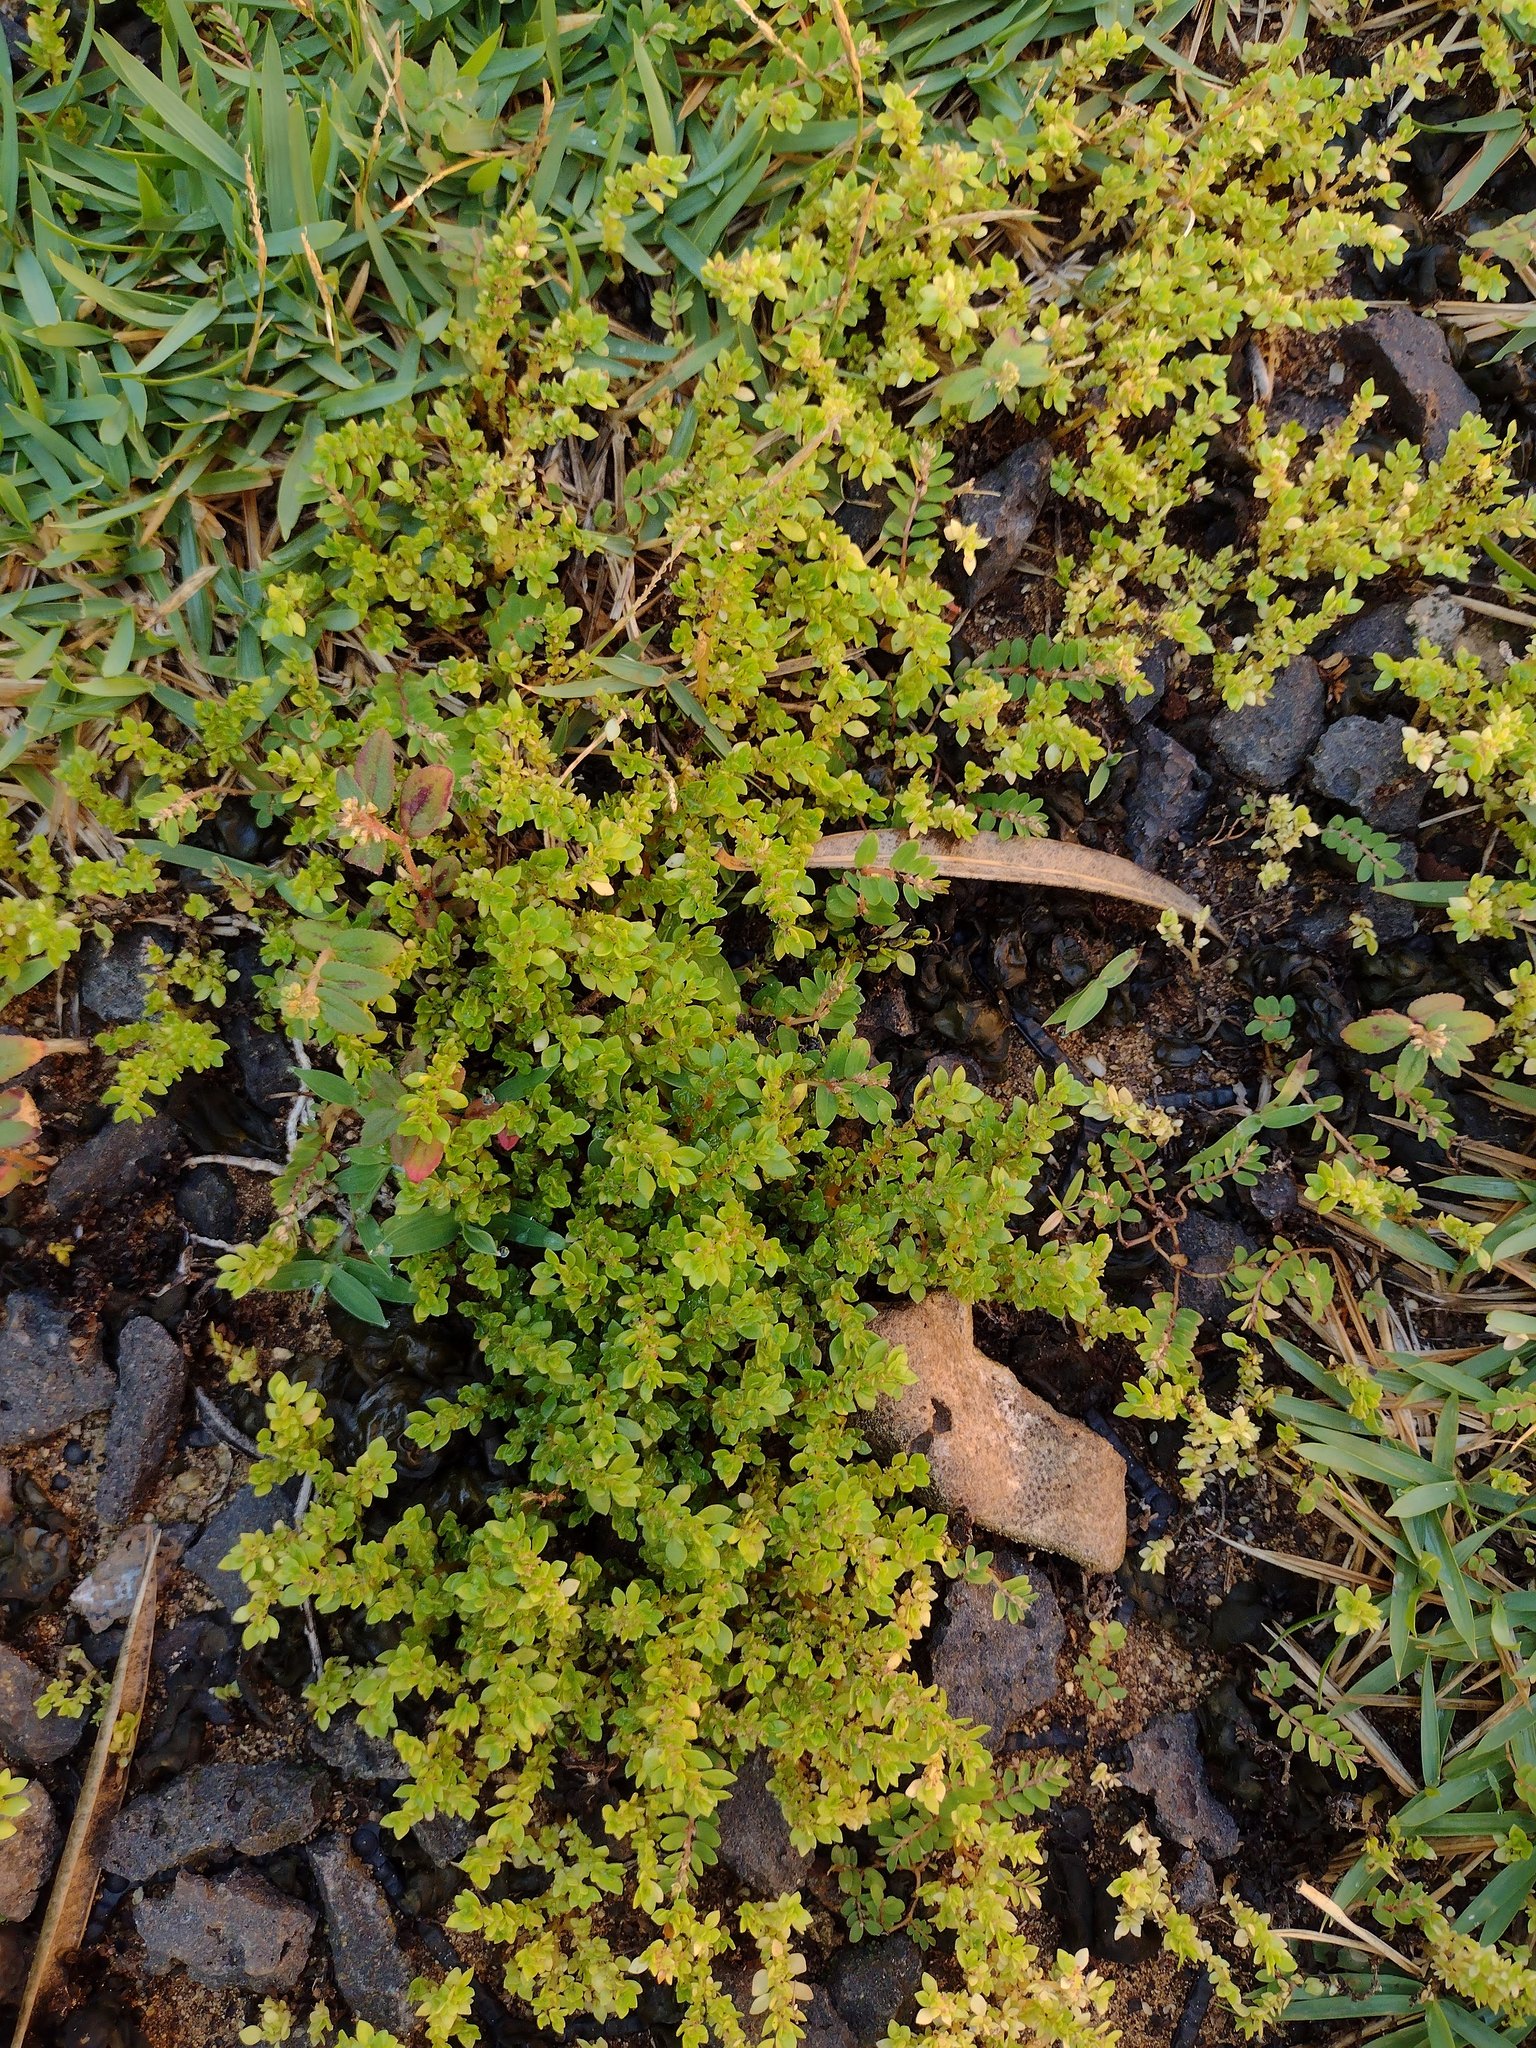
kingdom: Plantae
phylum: Tracheophyta
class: Magnoliopsida
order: Rosales
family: Urticaceae
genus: Pilea
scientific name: Pilea microphylla
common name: Artillery-plant
